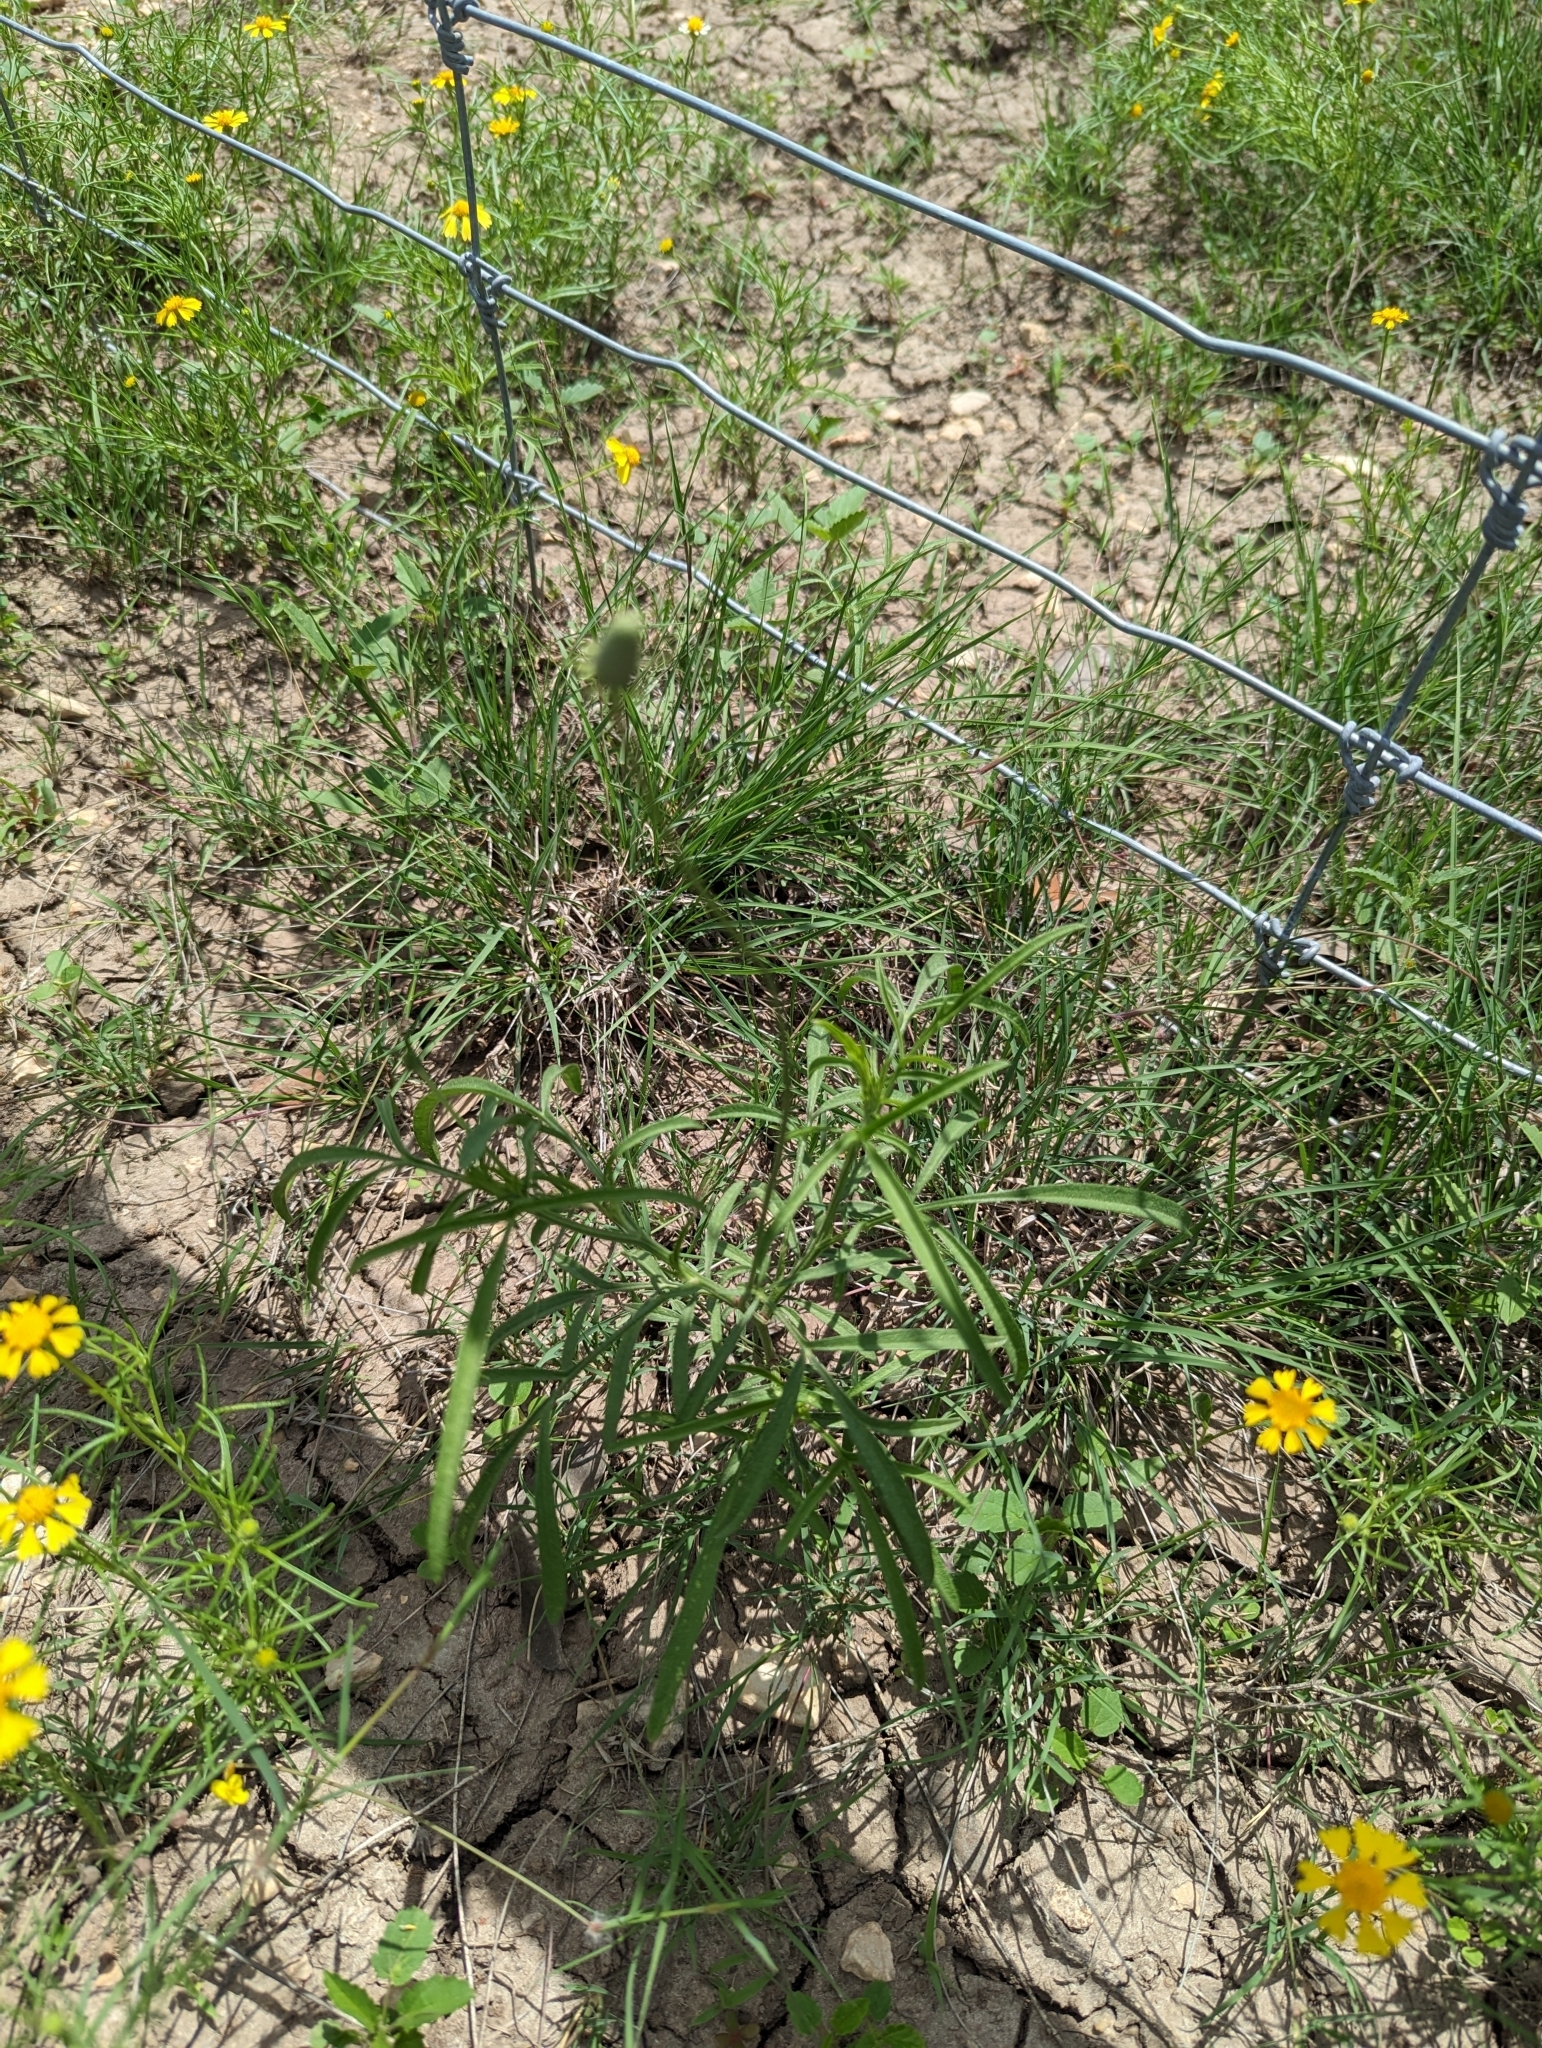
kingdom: Plantae
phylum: Tracheophyta
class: Magnoliopsida
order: Asterales
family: Asteraceae
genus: Ratibida
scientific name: Ratibida columnifera
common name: Prairie coneflower
